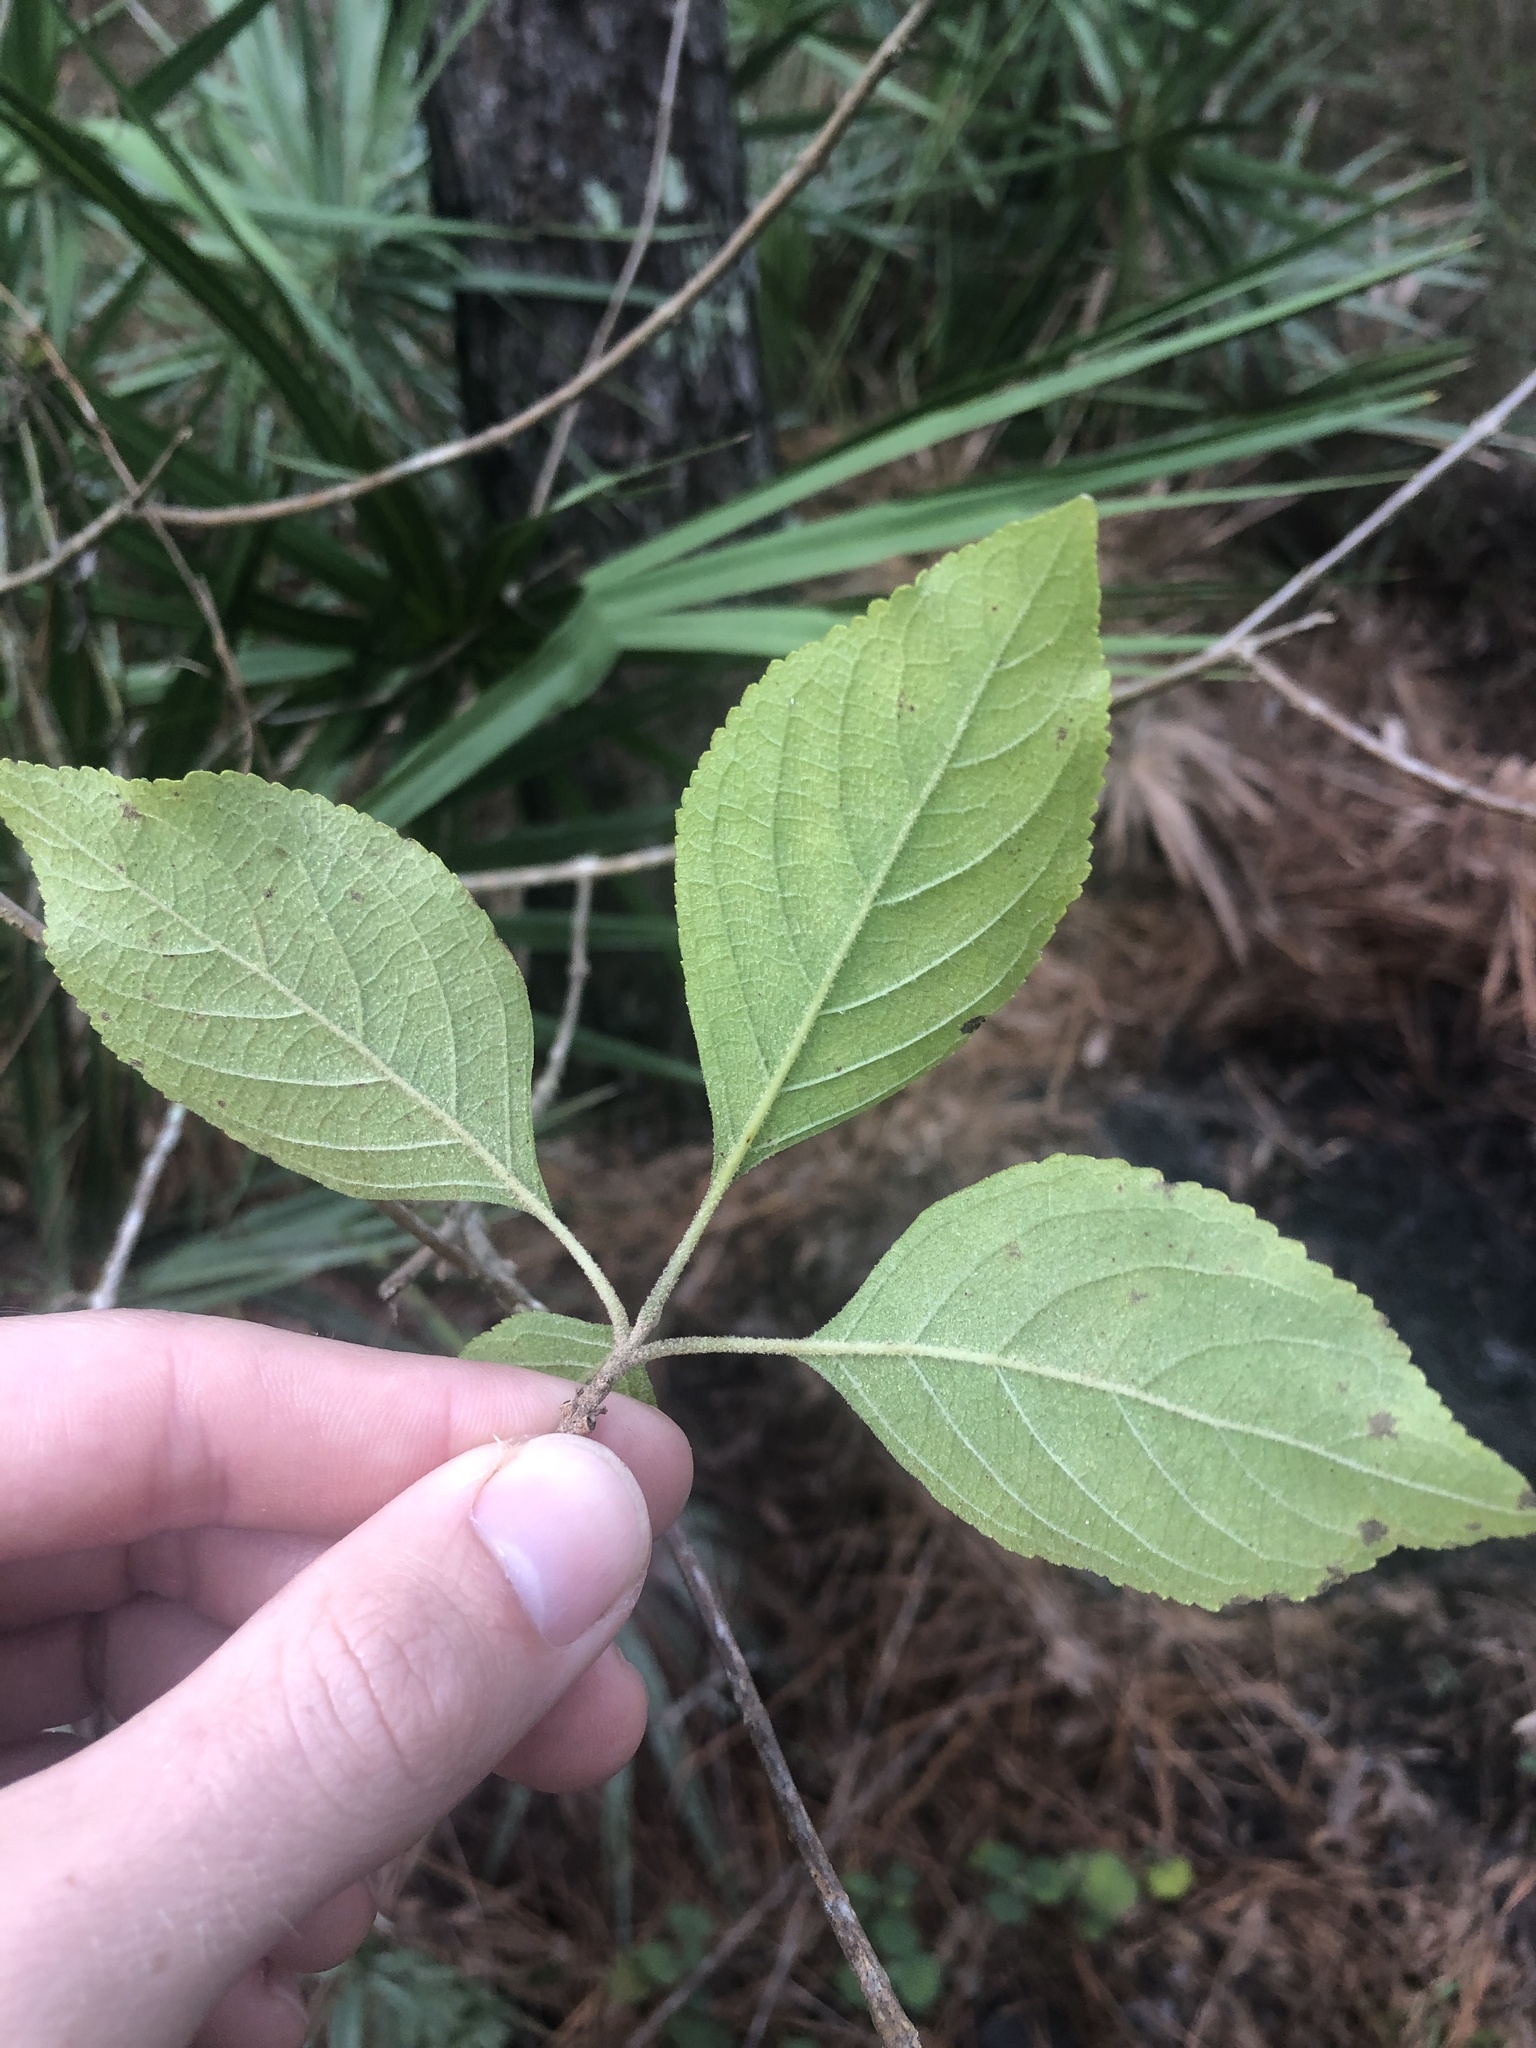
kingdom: Plantae
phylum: Tracheophyta
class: Magnoliopsida
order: Lamiales
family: Lamiaceae
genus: Callicarpa
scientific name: Callicarpa americana
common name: American beautyberry
